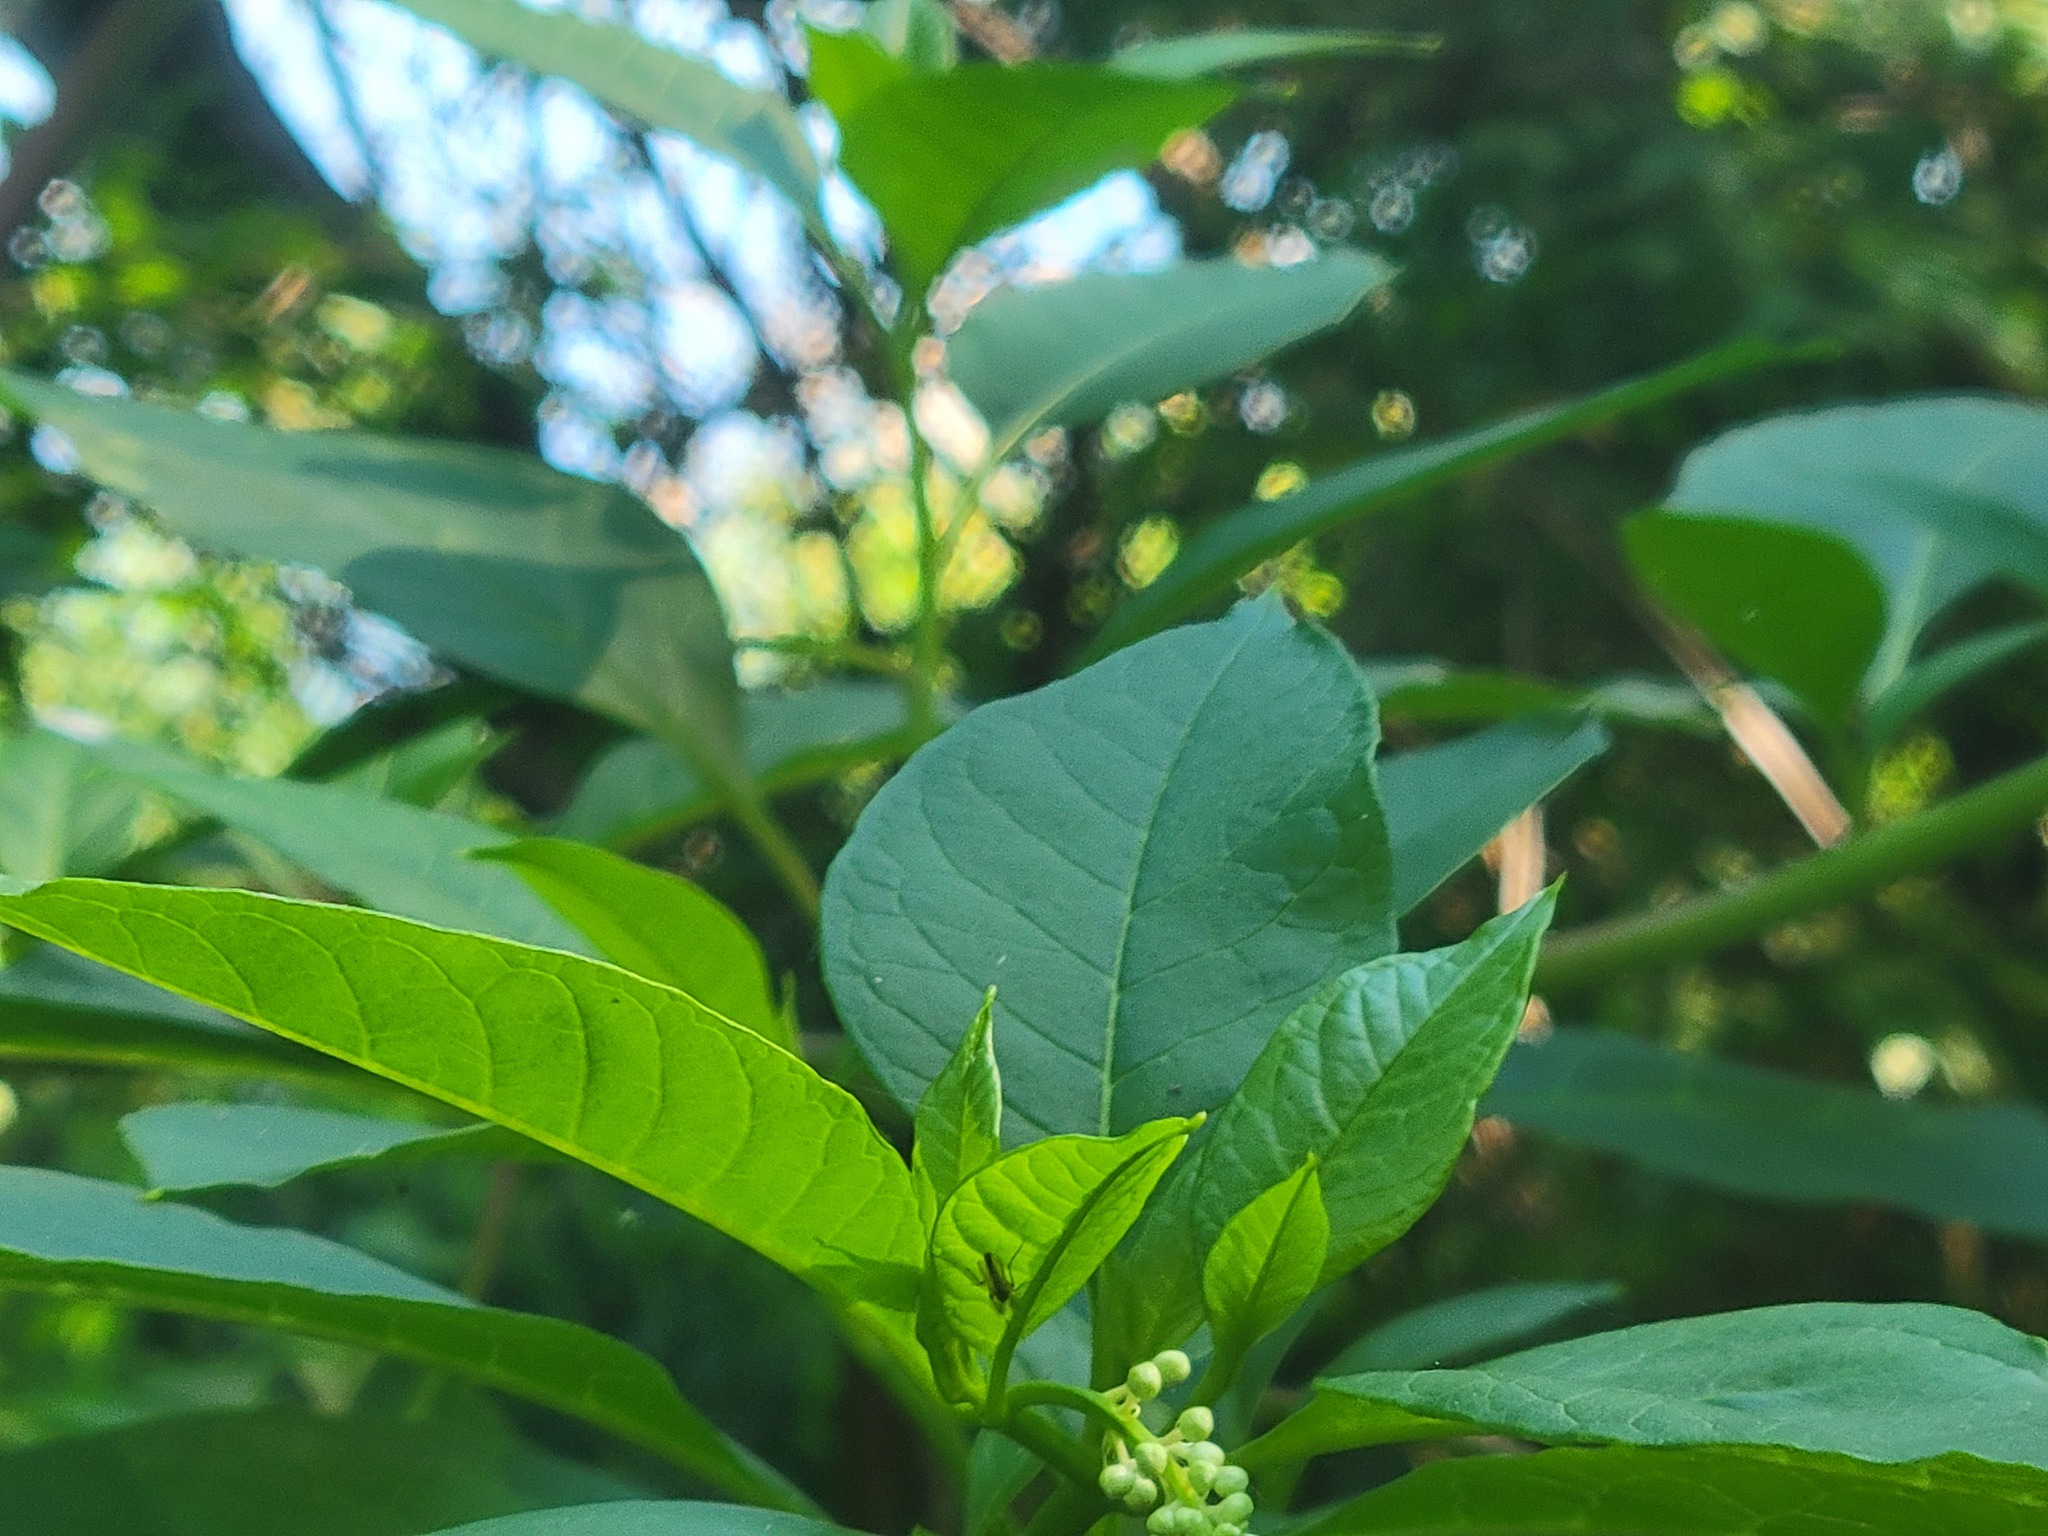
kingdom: Plantae
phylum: Tracheophyta
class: Magnoliopsida
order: Caryophyllales
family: Phytolaccaceae
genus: Phytolacca
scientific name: Phytolacca americana
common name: American pokeweed
